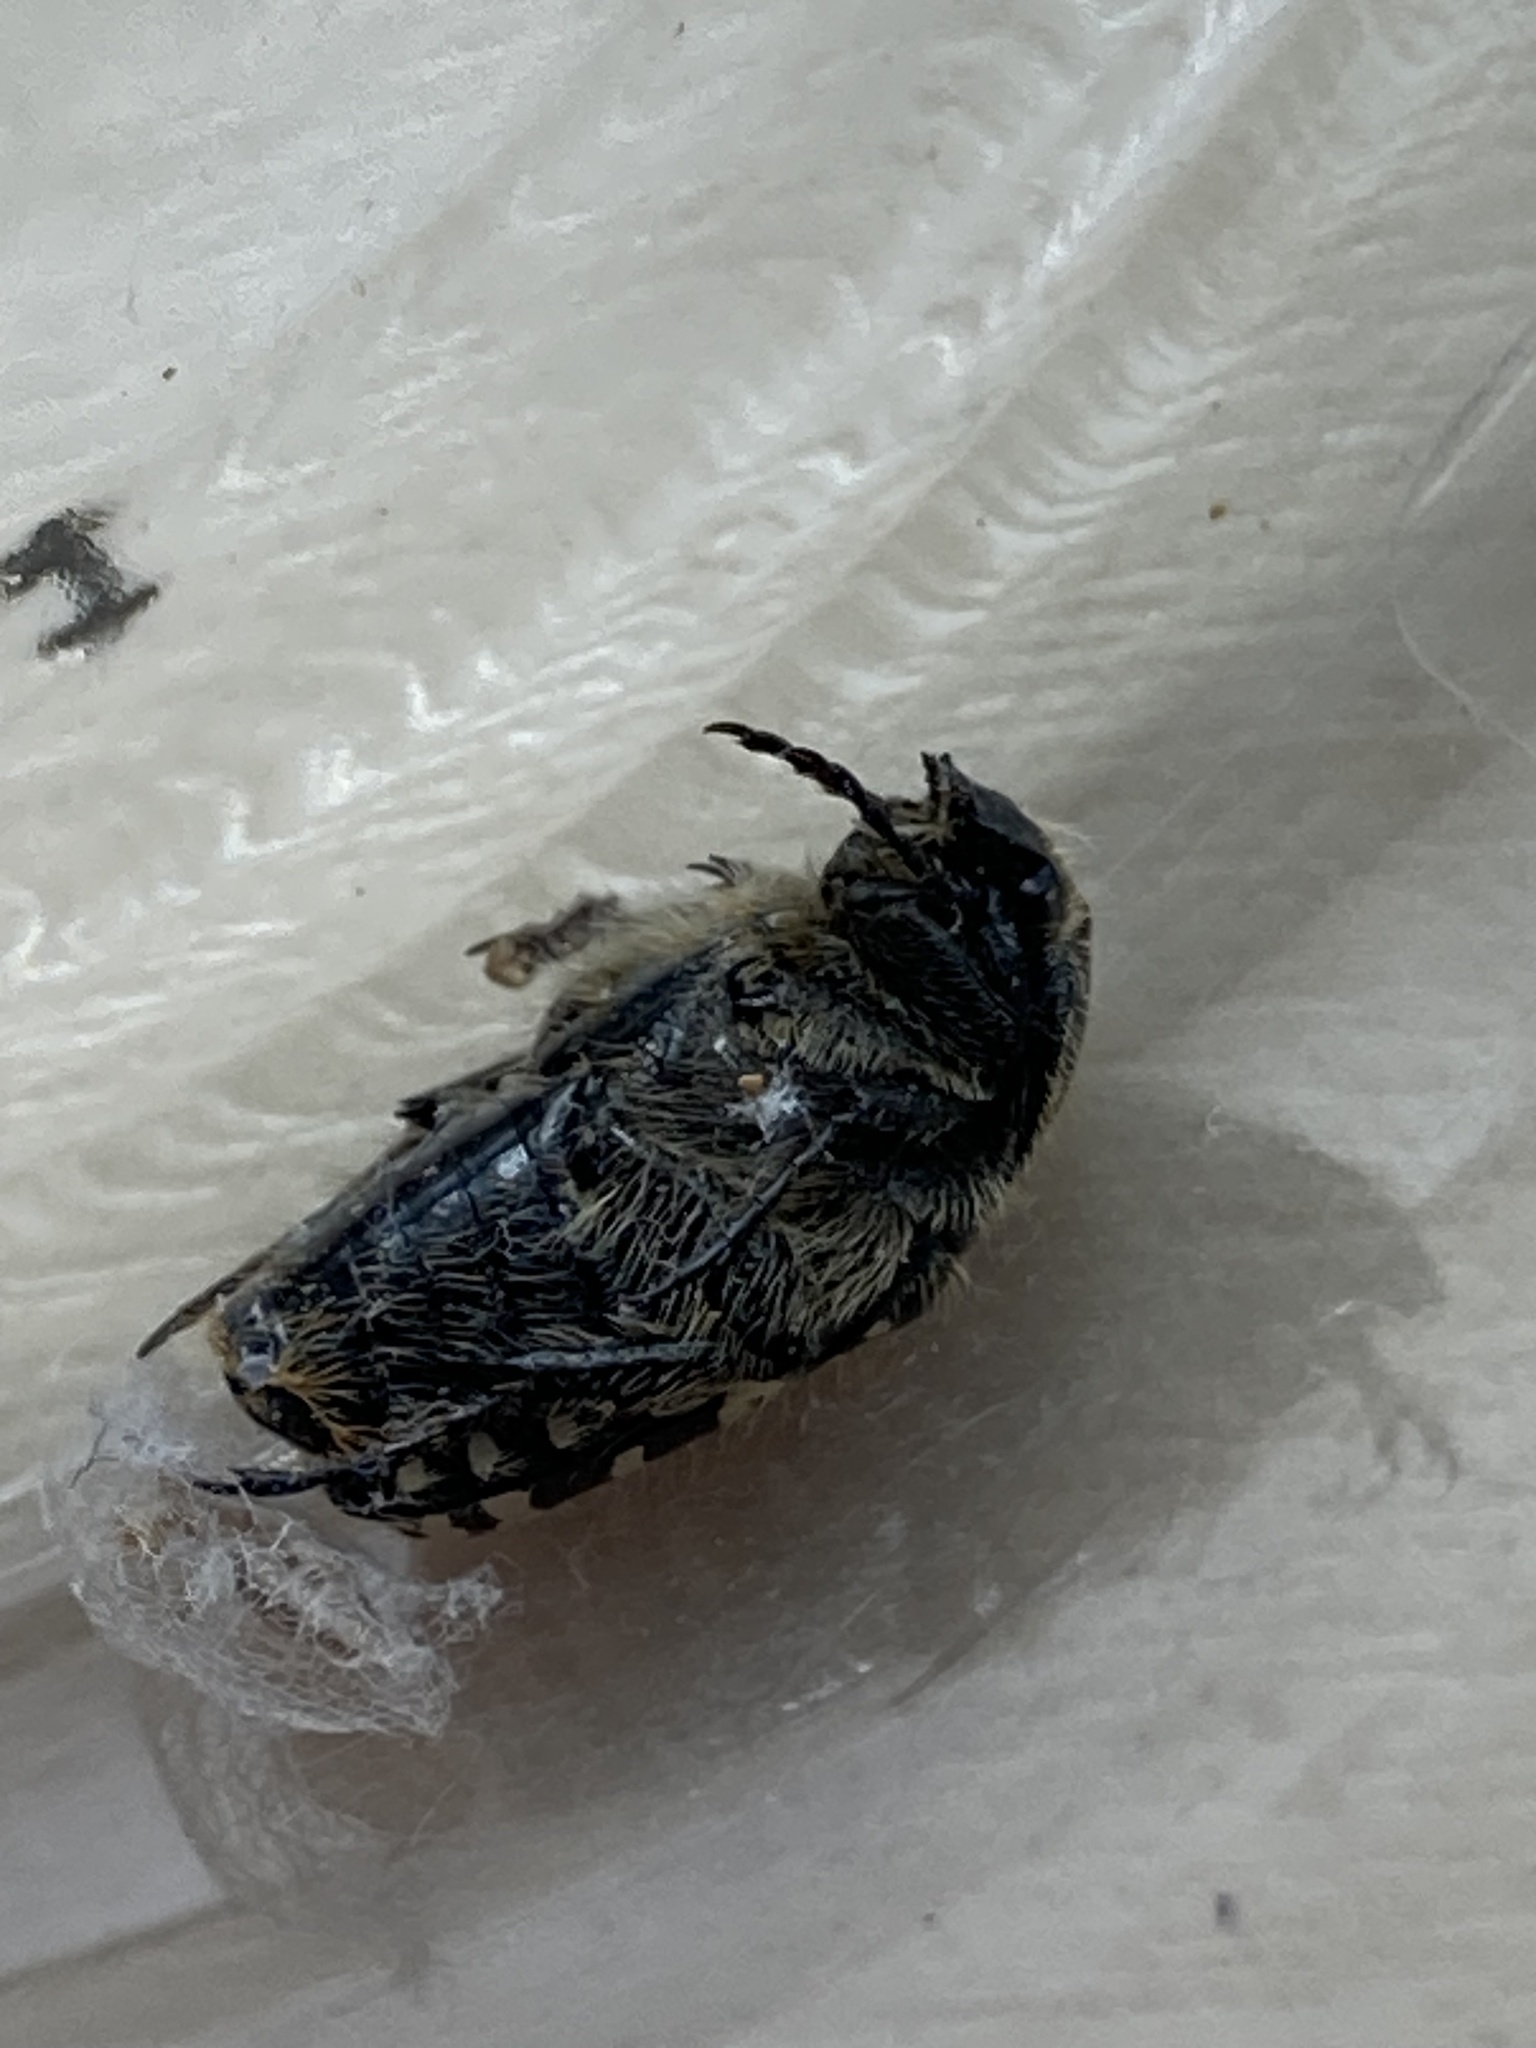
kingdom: Animalia
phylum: Arthropoda
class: Insecta
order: Coleoptera
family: Scarabaeidae
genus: Oxythyrea
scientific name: Oxythyrea funesta
